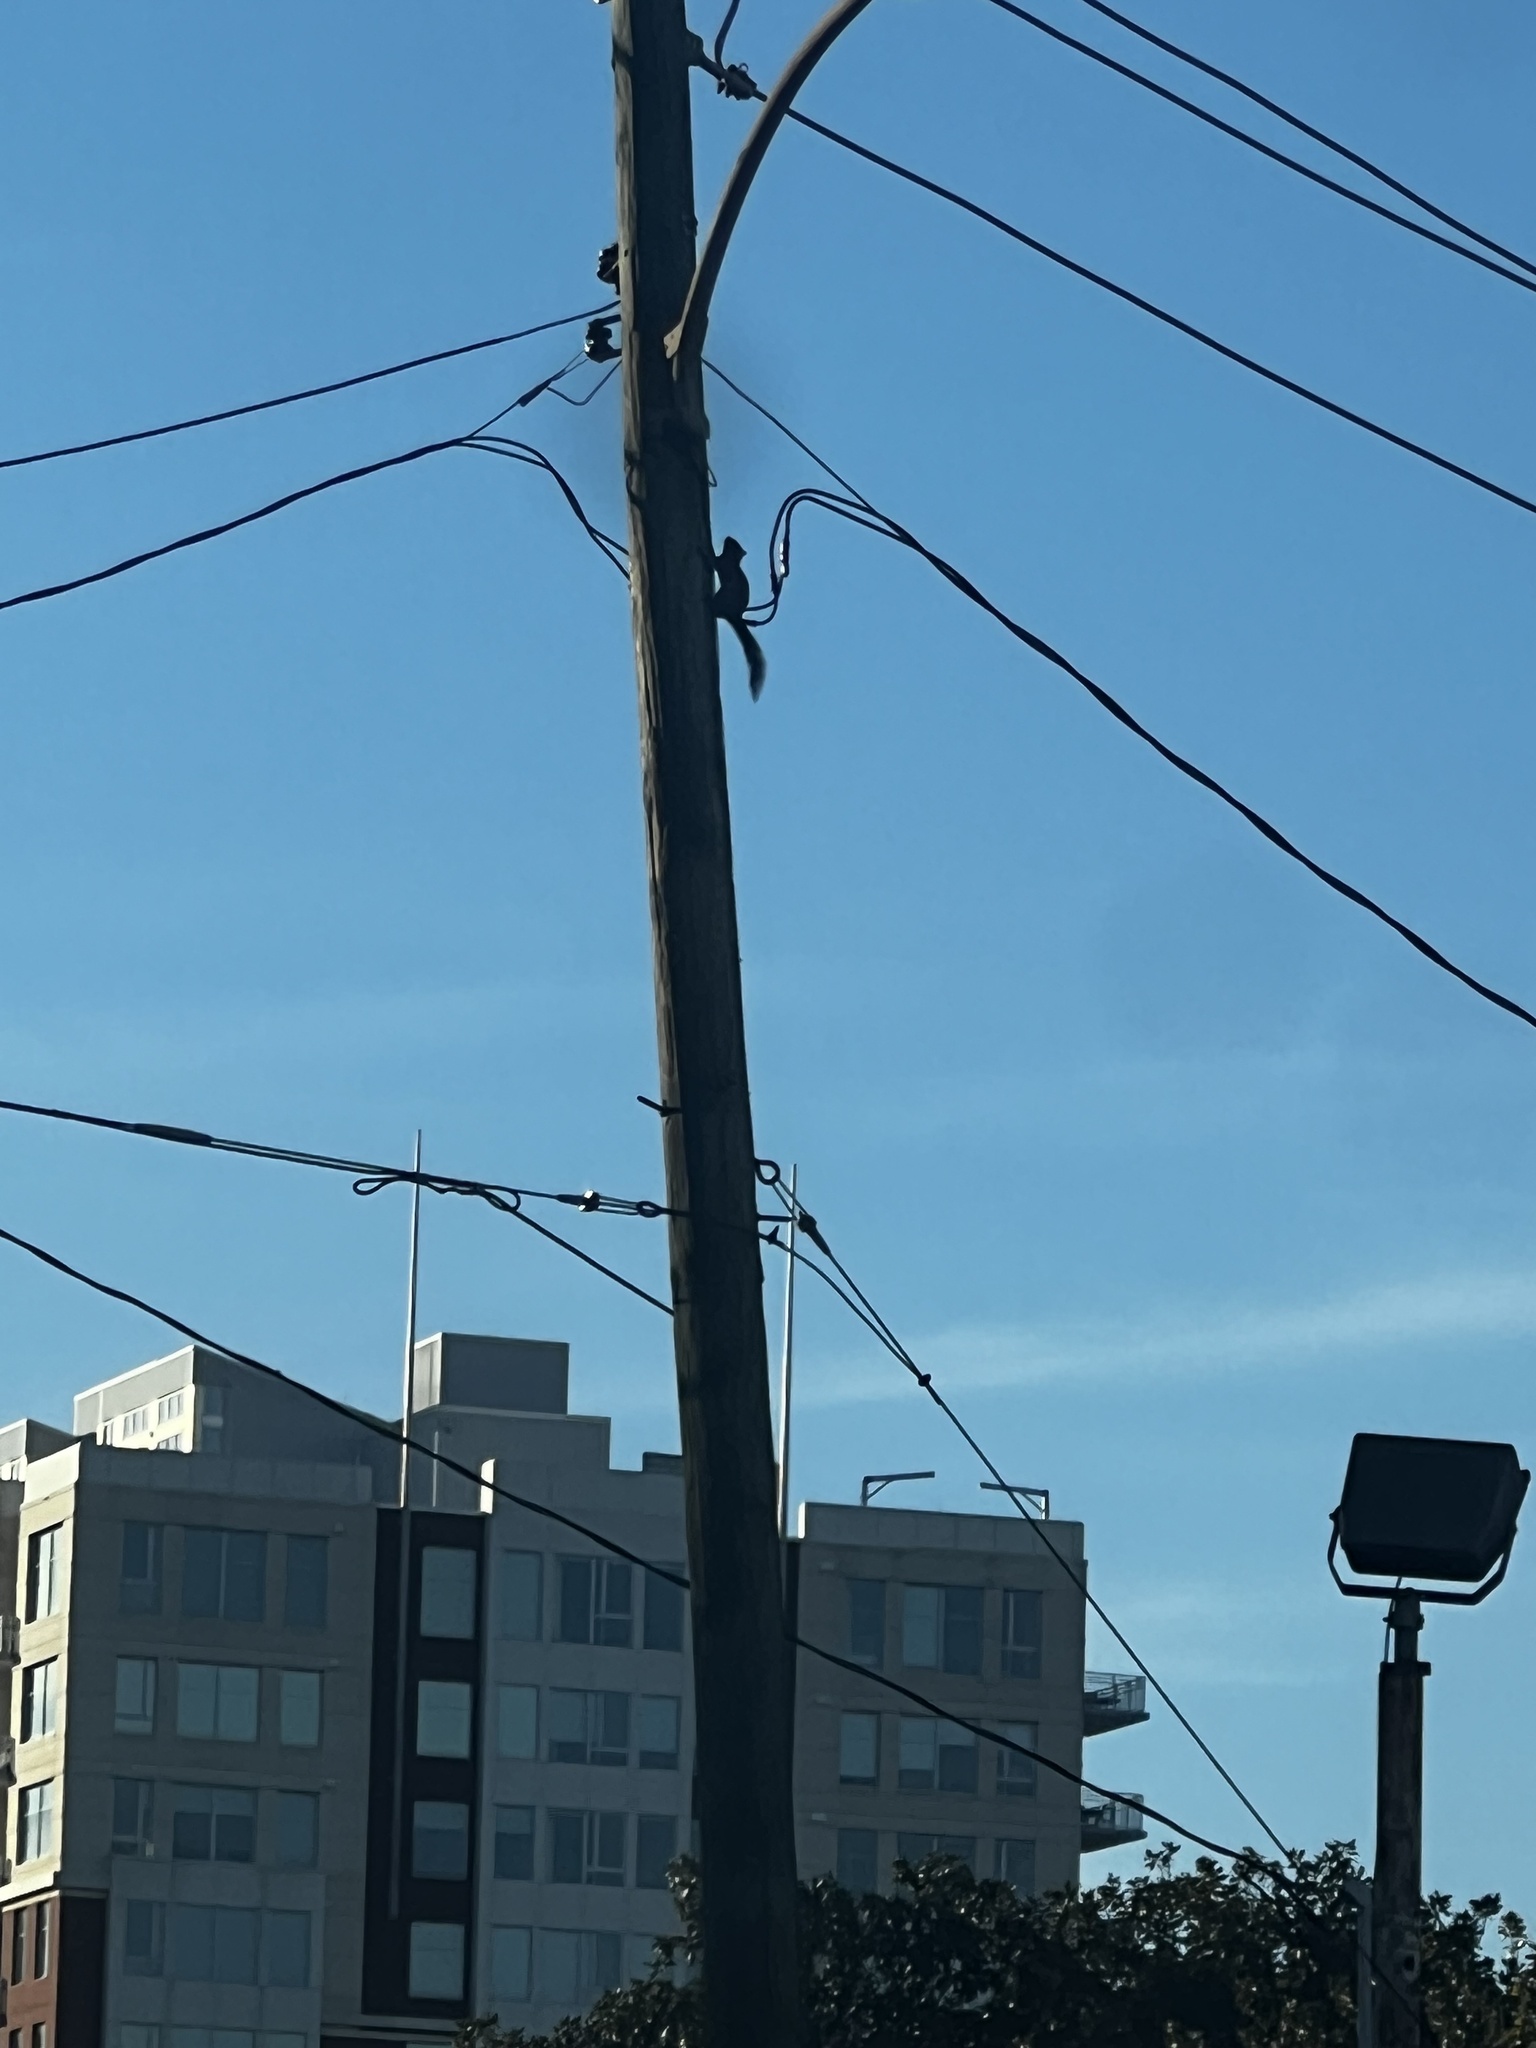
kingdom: Animalia
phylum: Chordata
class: Mammalia
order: Rodentia
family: Sciuridae
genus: Sciurus
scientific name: Sciurus carolinensis
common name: Eastern gray squirrel
